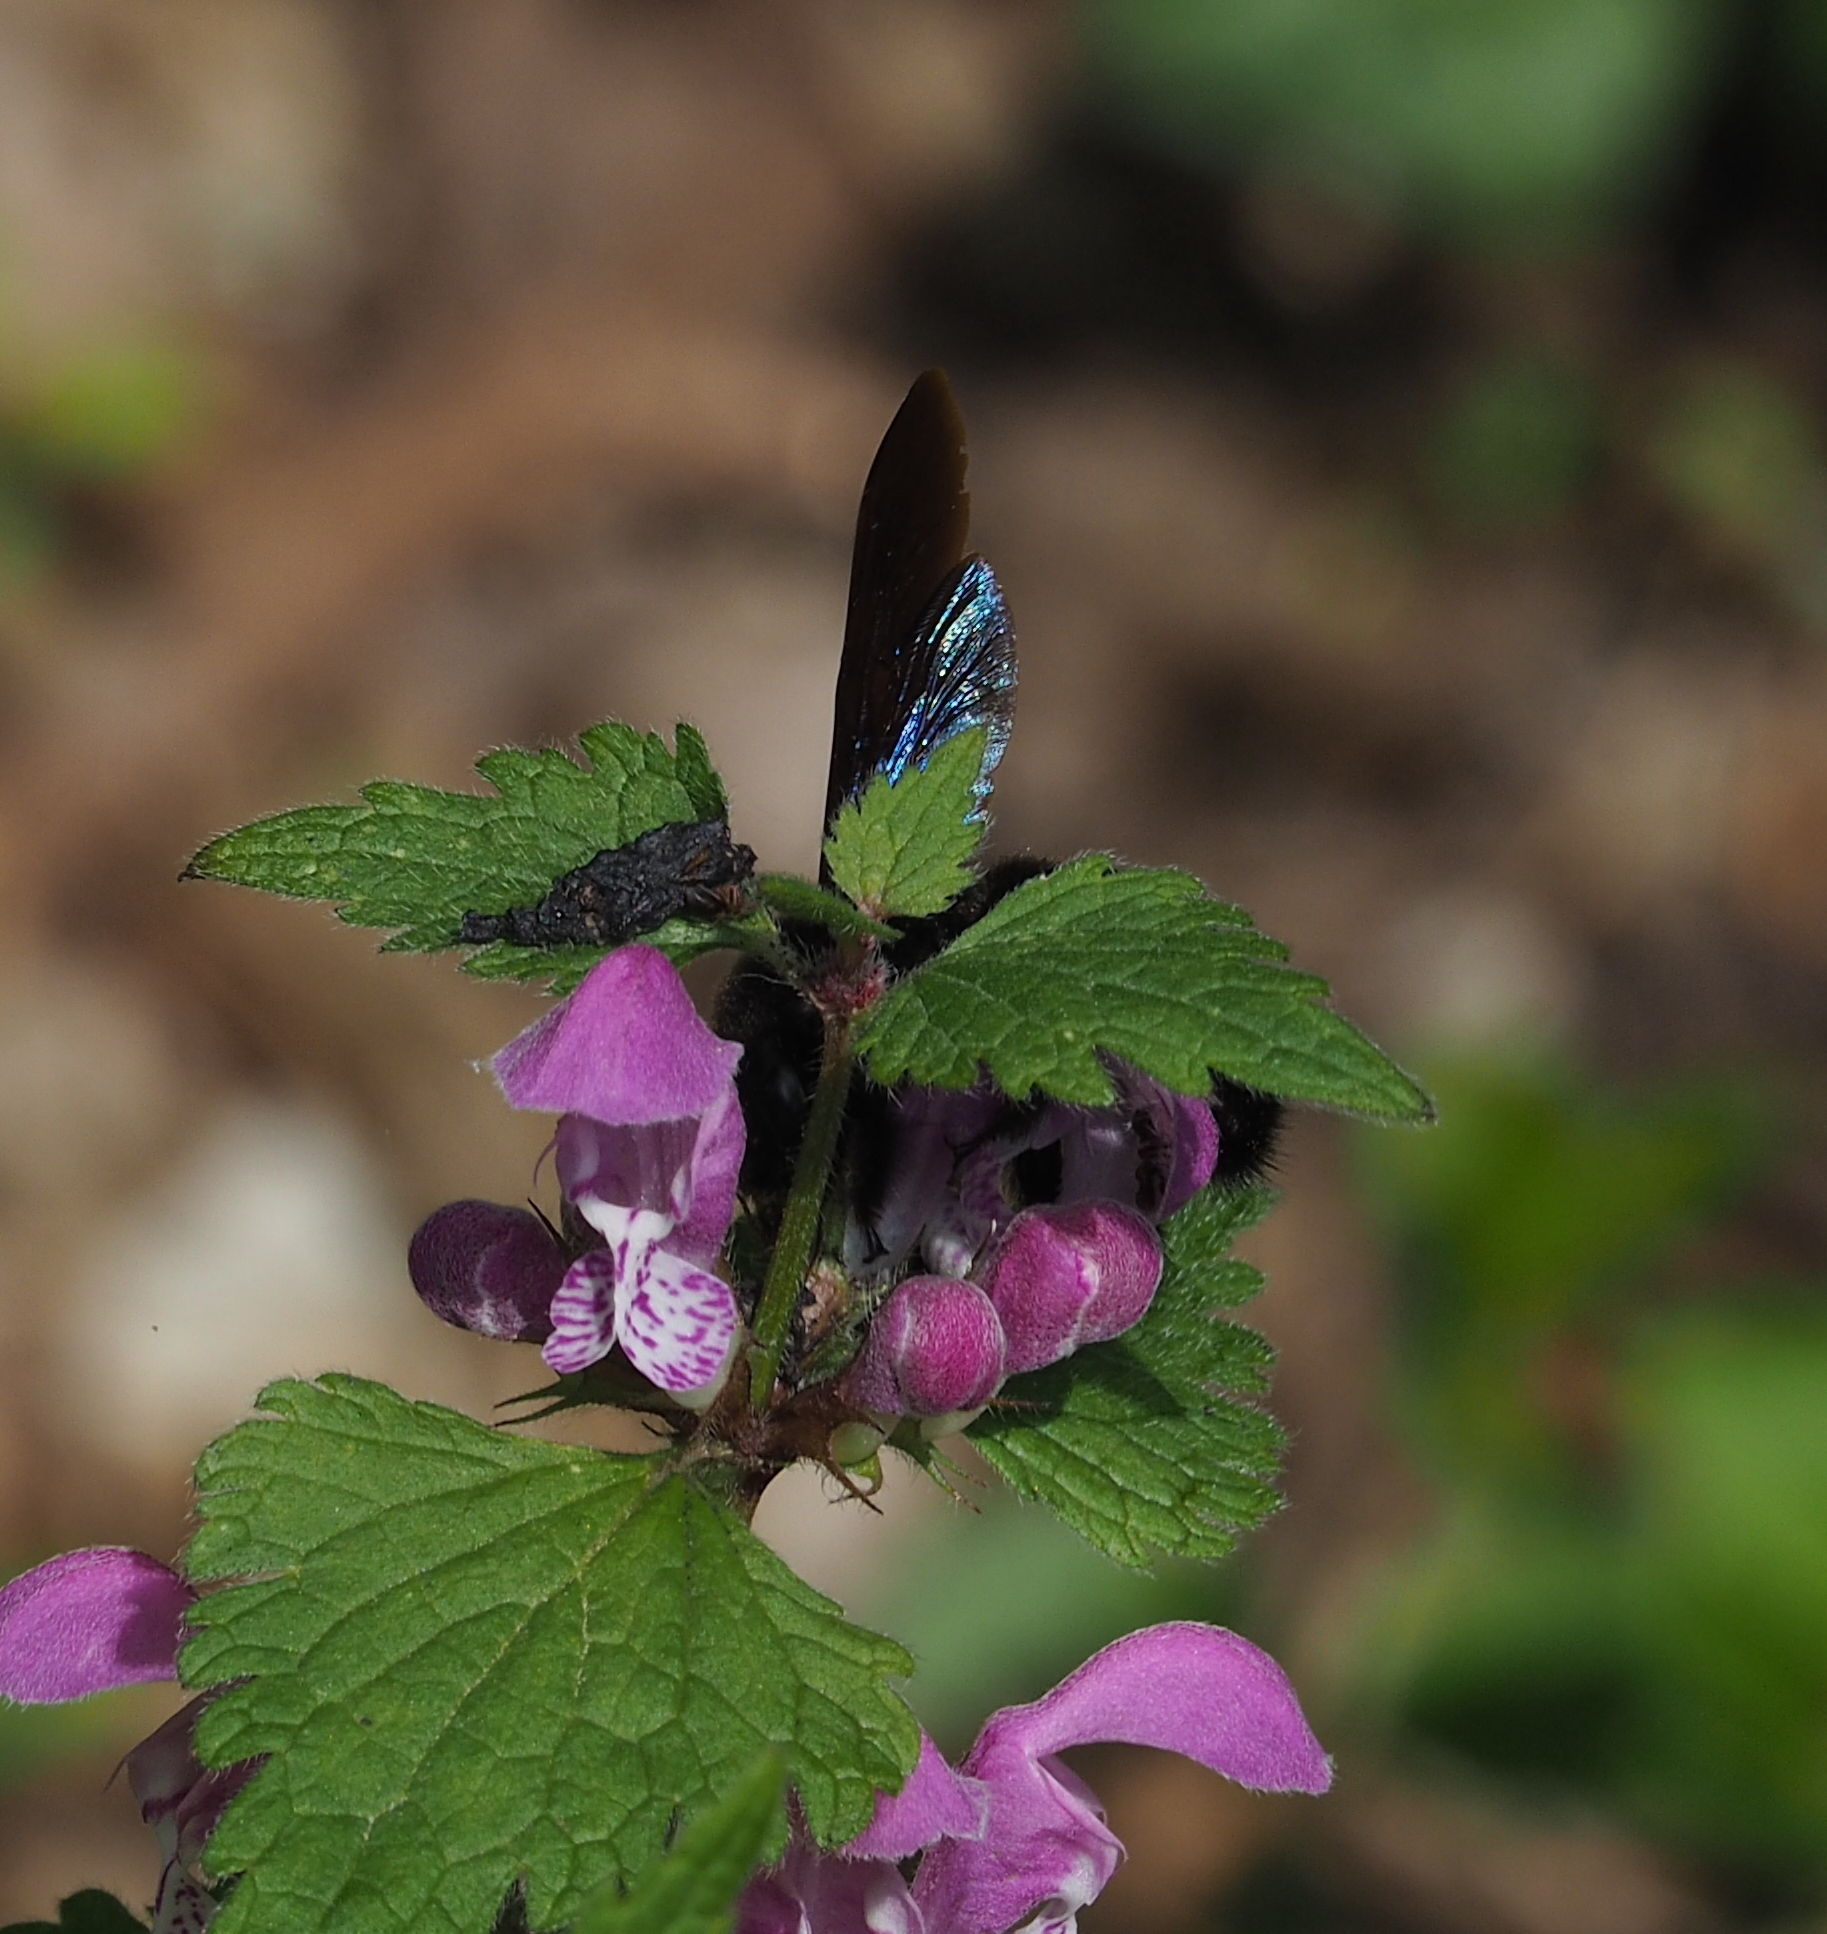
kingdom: Animalia
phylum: Arthropoda
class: Insecta
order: Hymenoptera
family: Apidae
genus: Xylocopa
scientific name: Xylocopa violacea
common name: Violet carpenter bee
